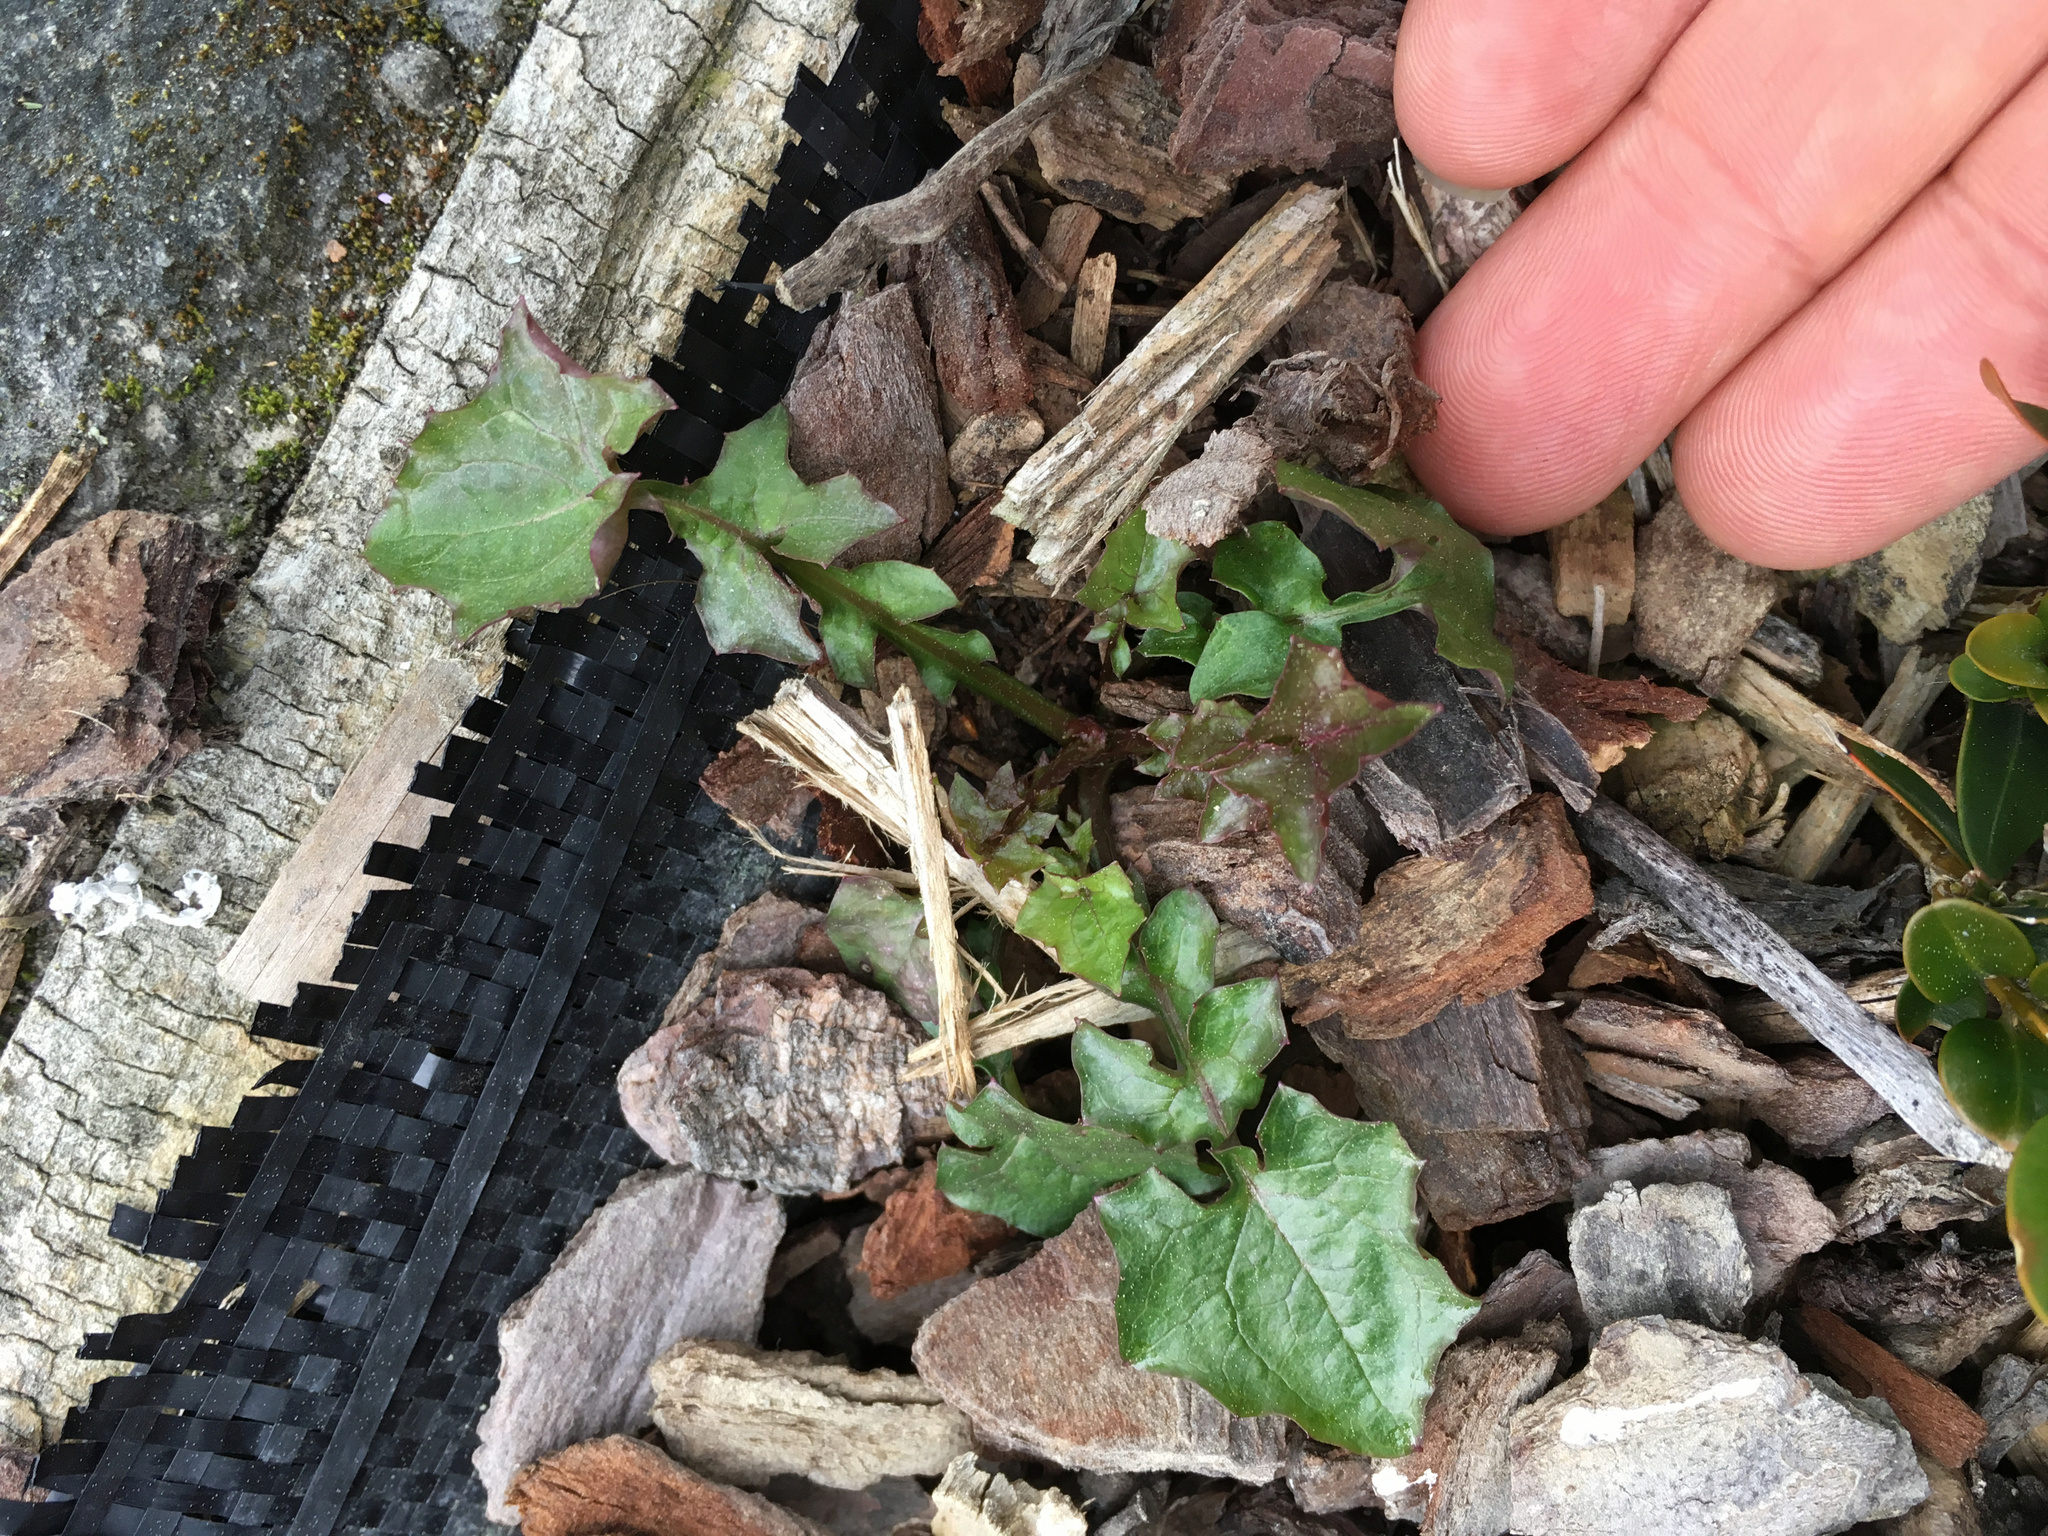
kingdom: Plantae
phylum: Tracheophyta
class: Magnoliopsida
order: Asterales
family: Asteraceae
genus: Mycelis
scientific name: Mycelis muralis
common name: Wall lettuce
